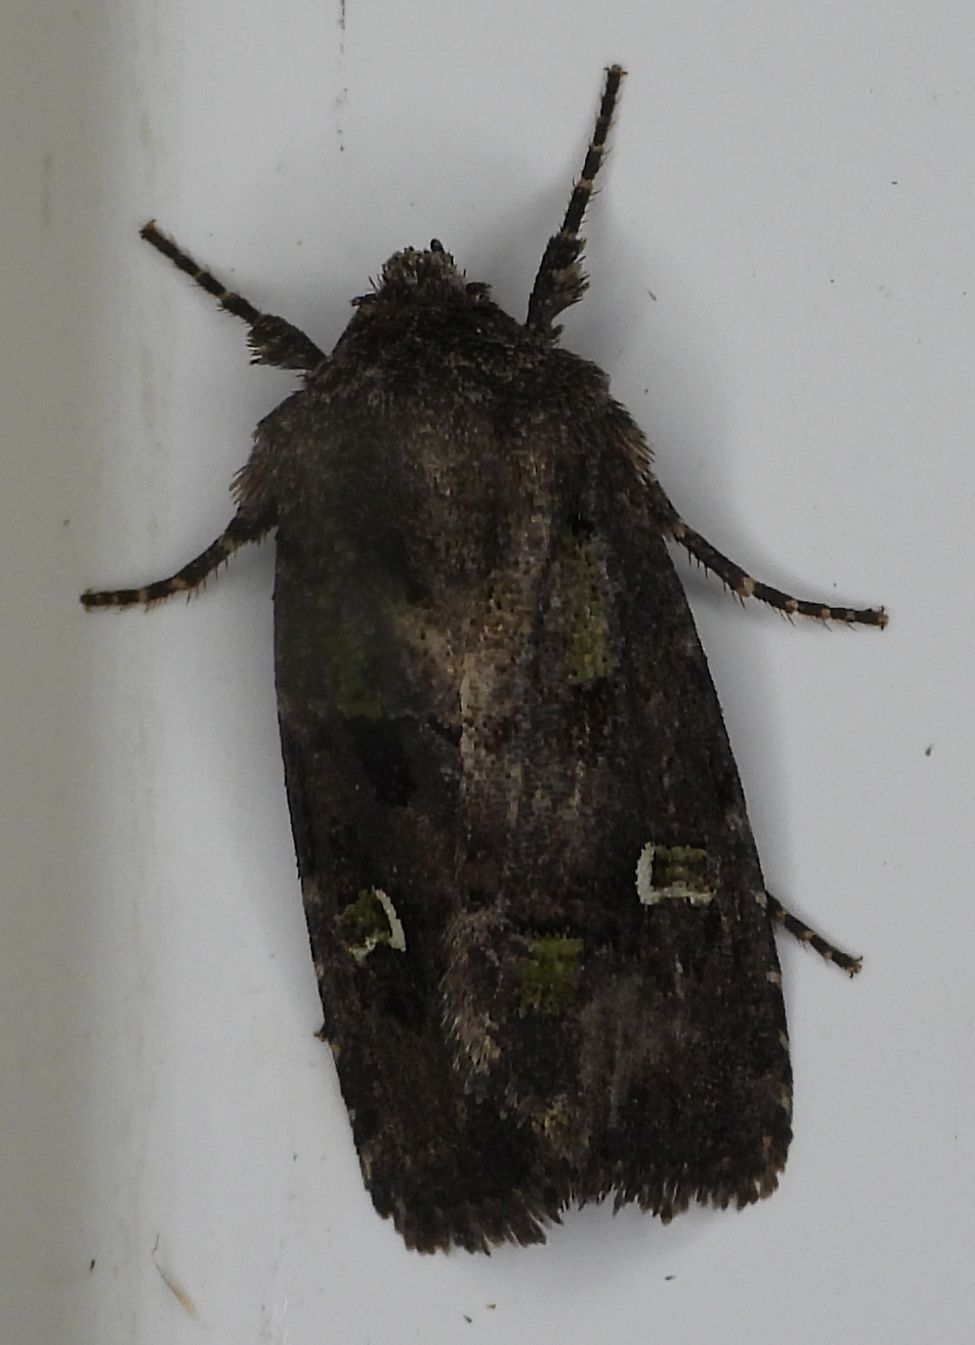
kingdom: Animalia
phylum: Arthropoda
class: Insecta
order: Lepidoptera
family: Noctuidae
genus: Lacinipolia
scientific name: Lacinipolia renigera
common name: Kidney-spotted minor
